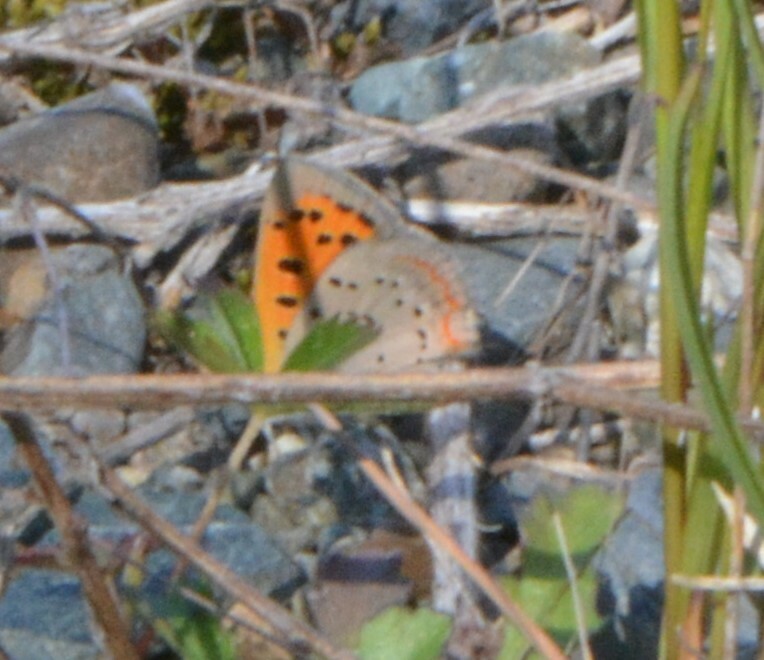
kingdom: Animalia
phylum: Arthropoda
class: Insecta
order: Lepidoptera
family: Lycaenidae
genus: Lycaena
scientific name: Lycaena hypophlaeas
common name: American copper
